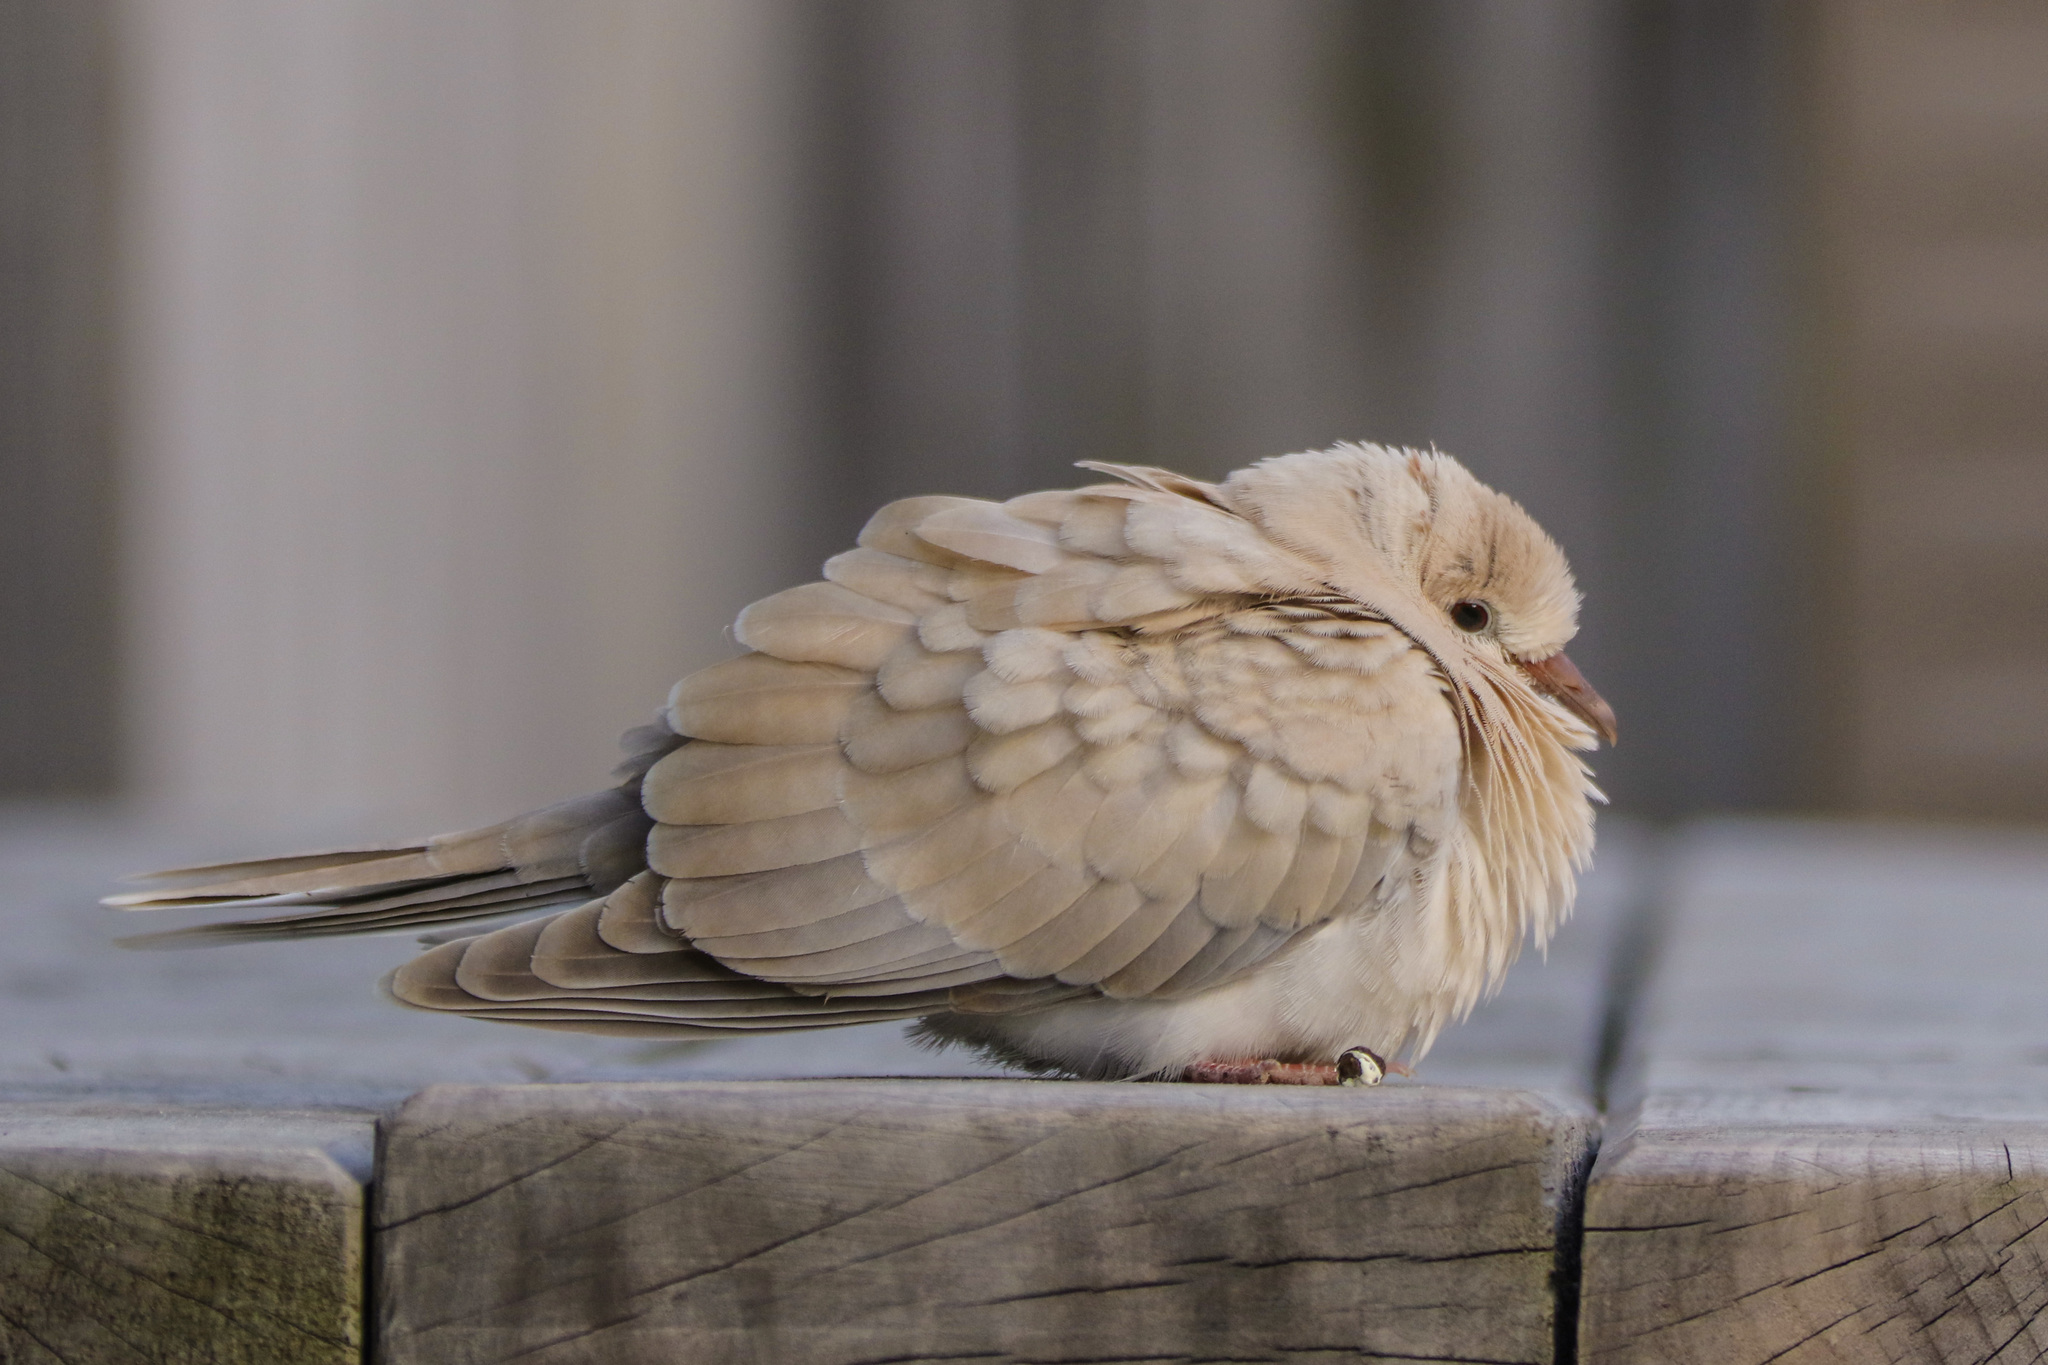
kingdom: Animalia
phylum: Chordata
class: Aves
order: Columbiformes
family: Columbidae
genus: Streptopelia
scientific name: Streptopelia roseogrisea
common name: African collared dove
